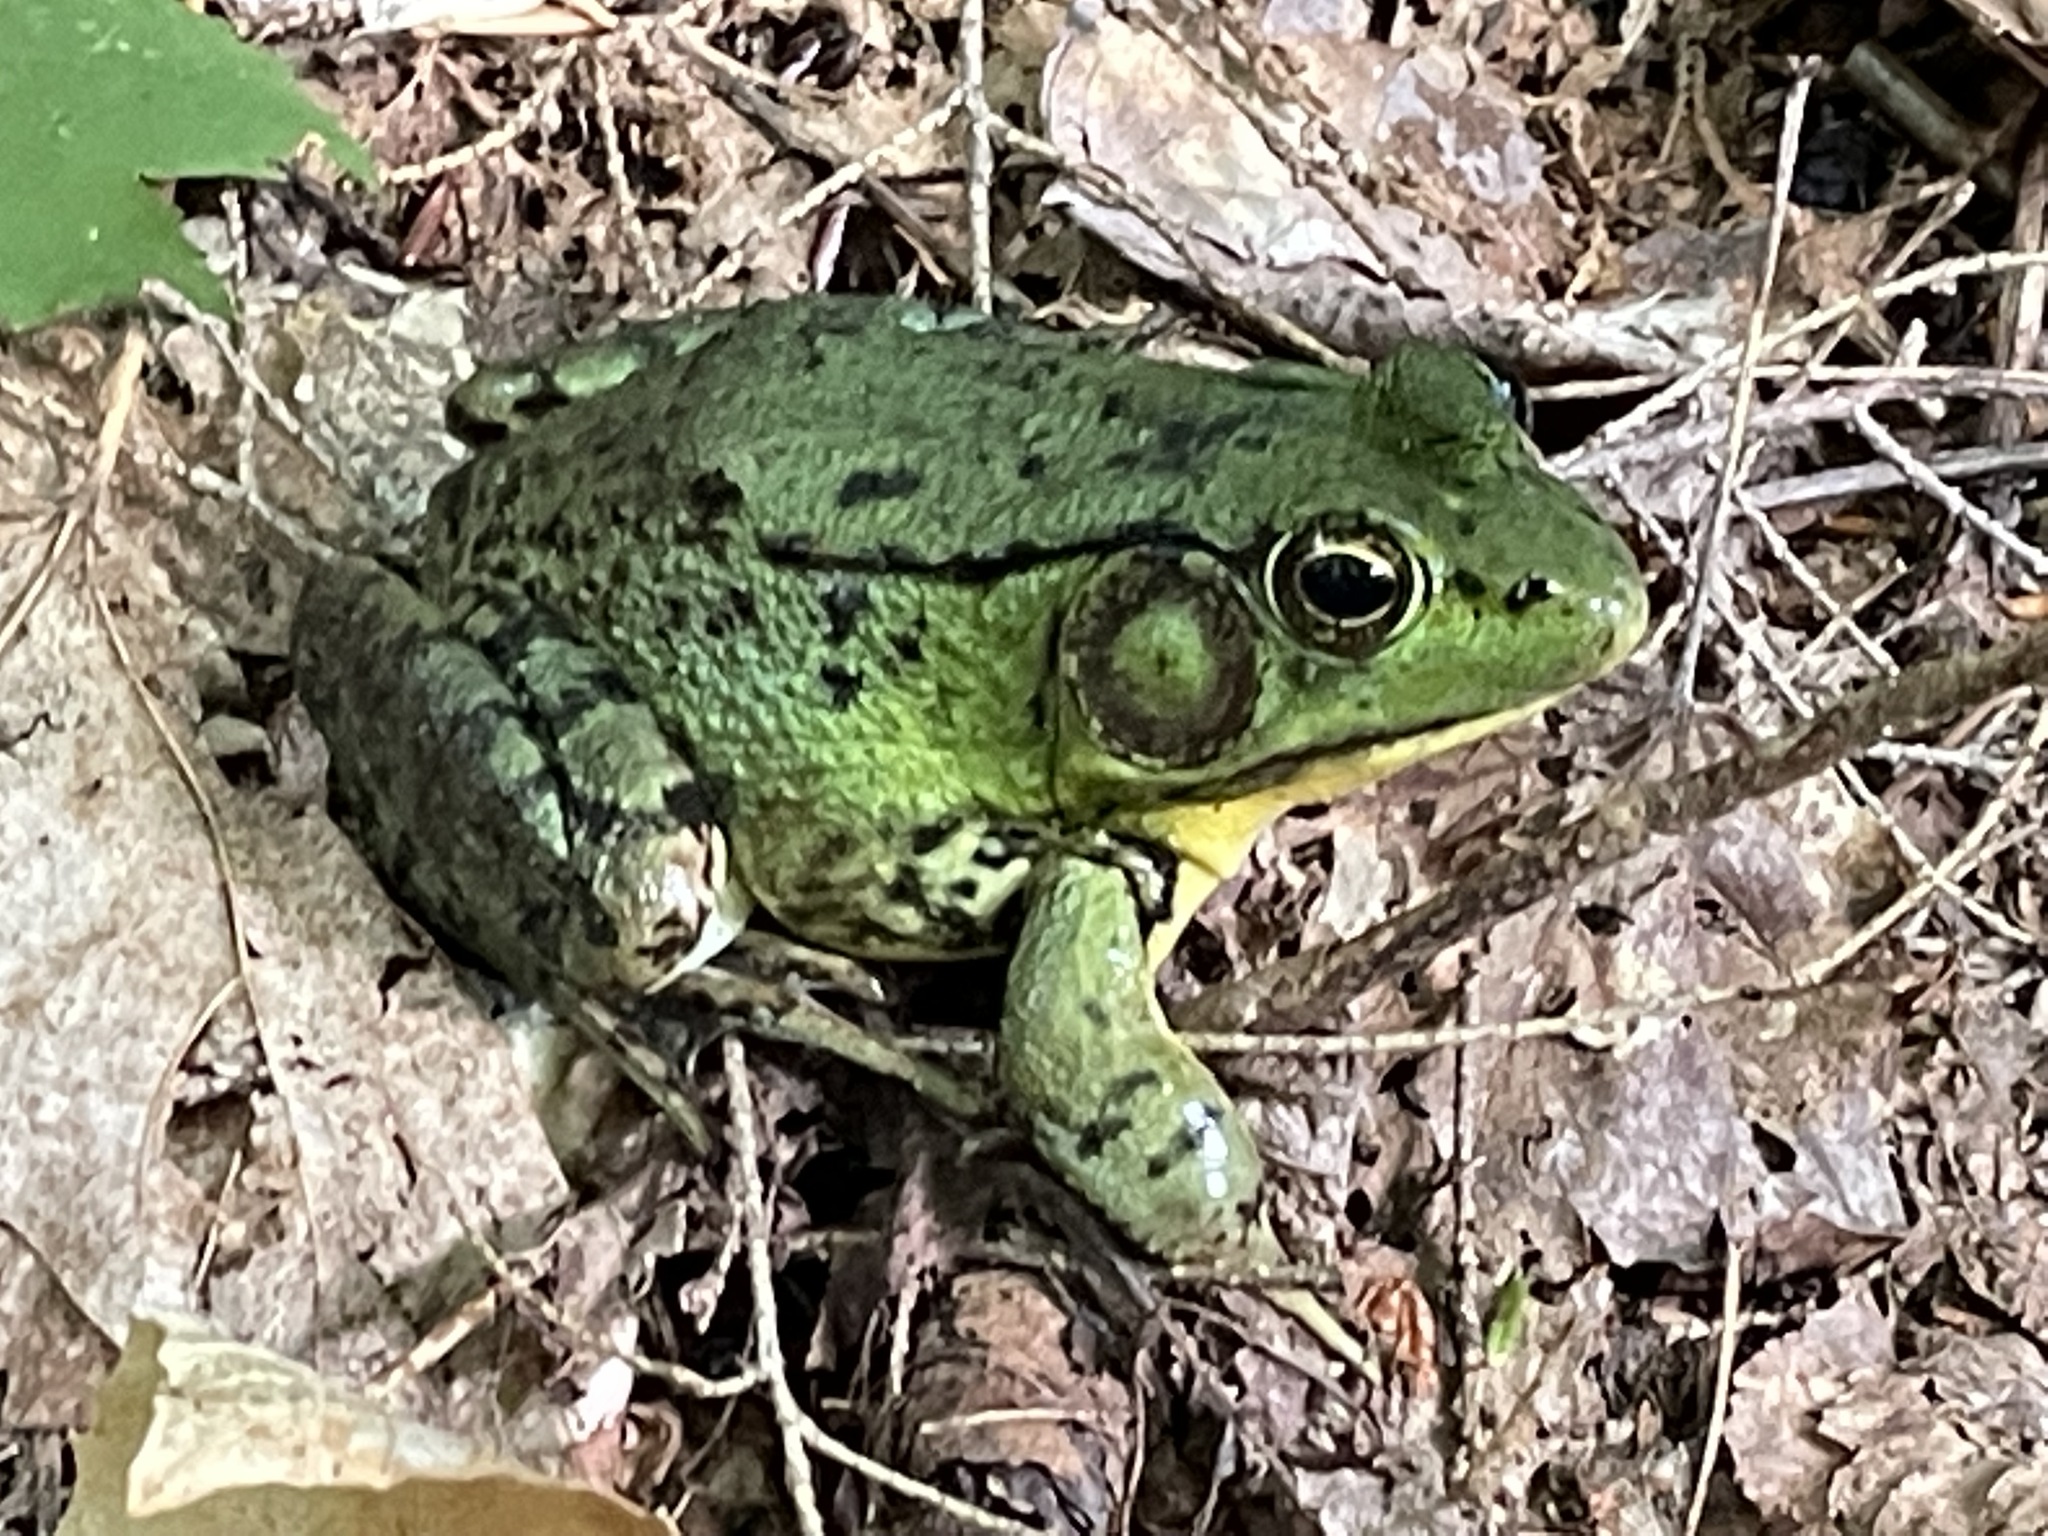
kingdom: Animalia
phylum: Chordata
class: Amphibia
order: Anura
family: Ranidae
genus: Lithobates
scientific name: Lithobates clamitans
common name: Green frog
